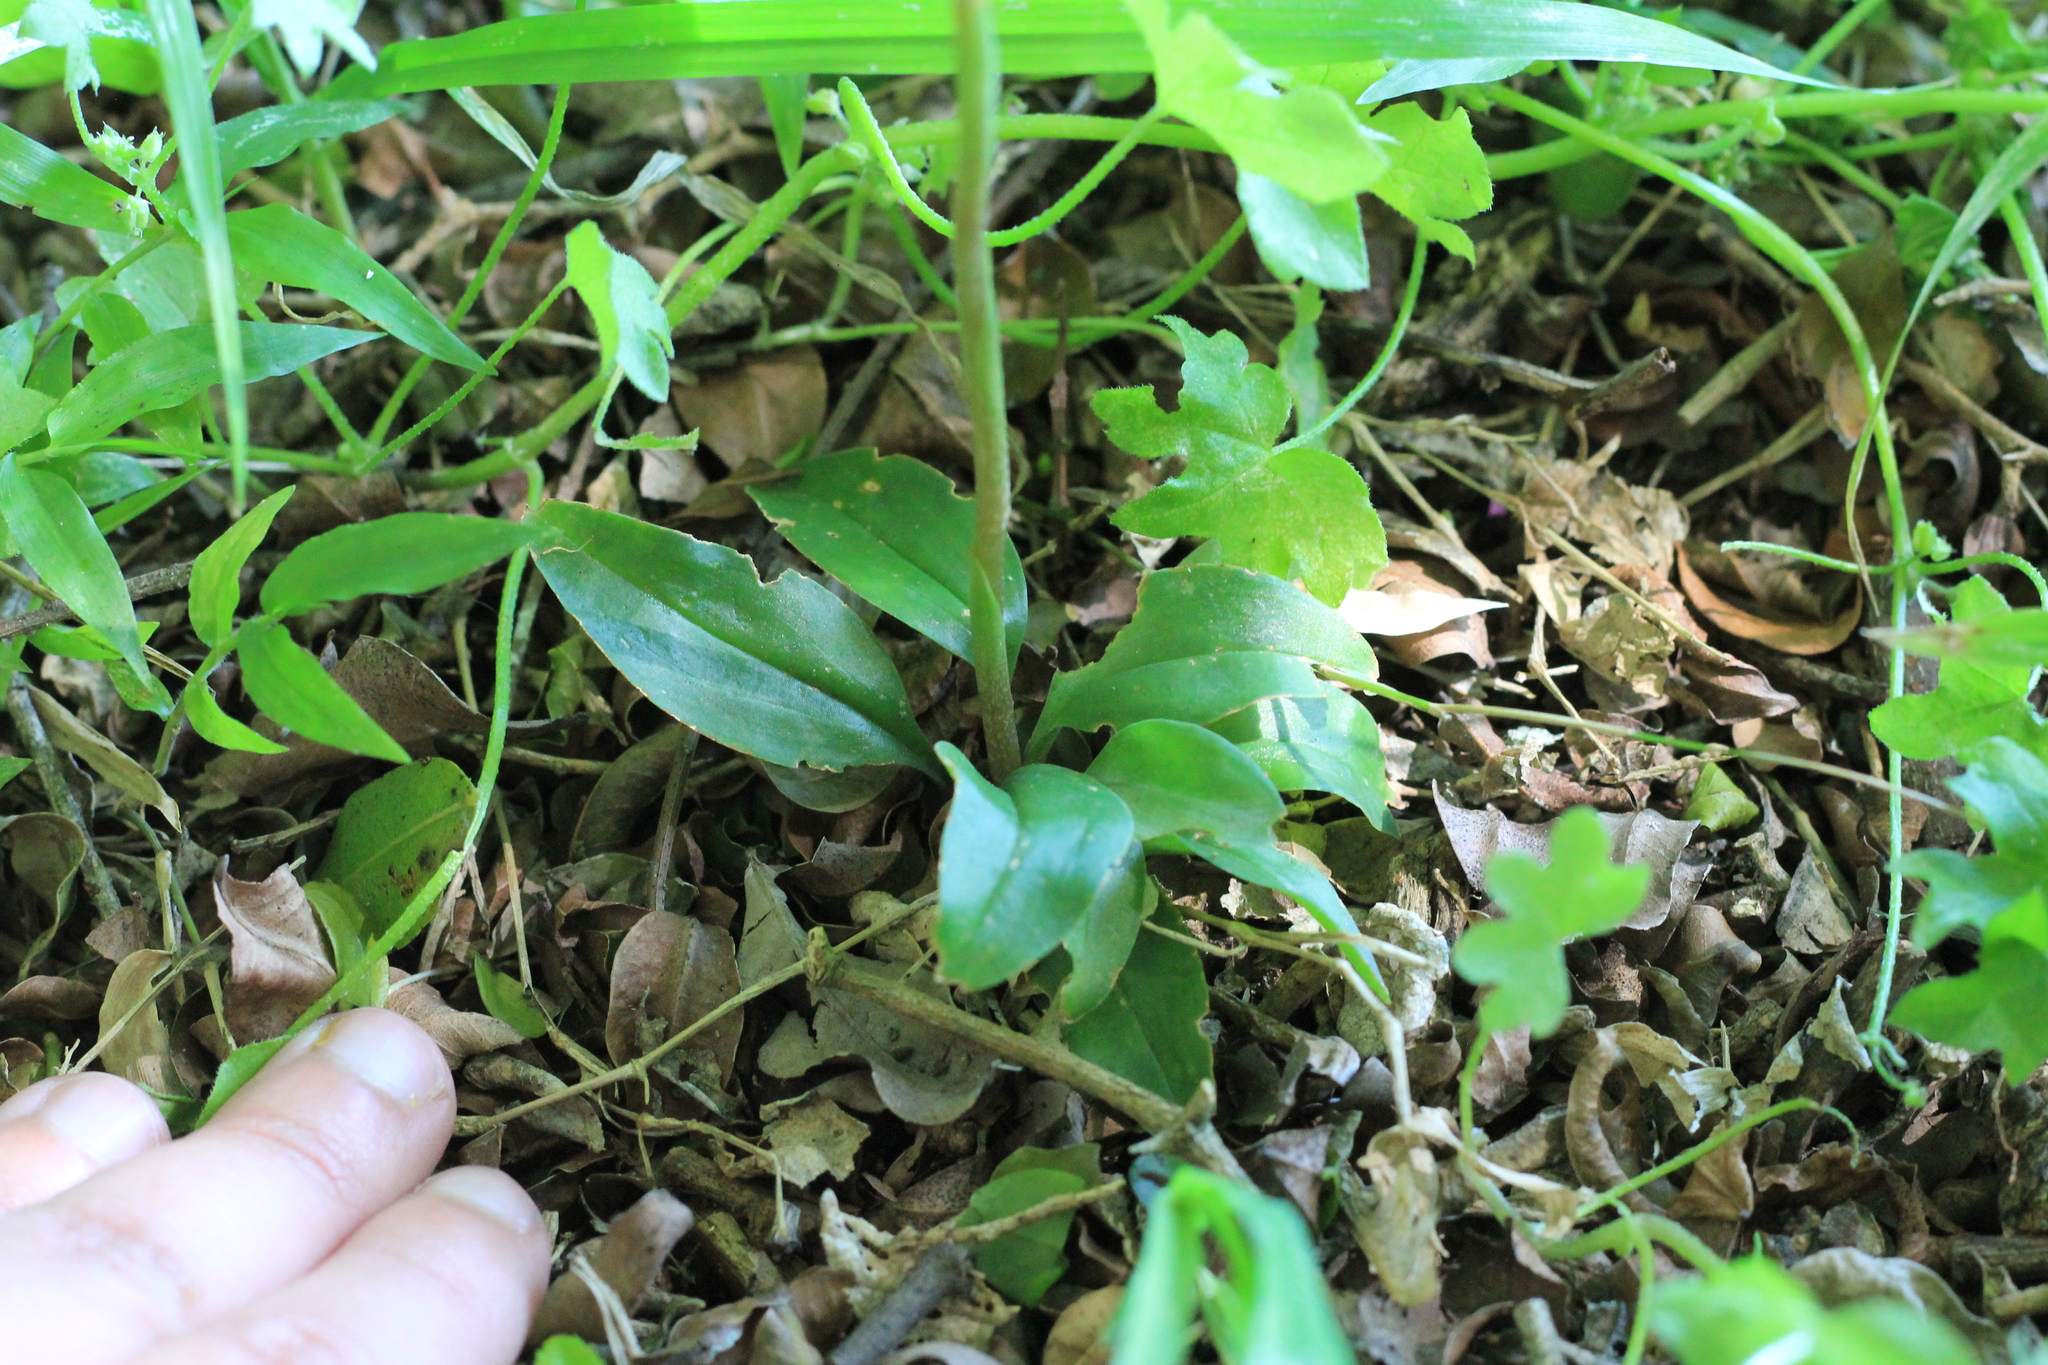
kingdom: Plantae
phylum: Tracheophyta
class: Liliopsida
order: Asparagales
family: Orchidaceae
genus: Cyclopogon
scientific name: Cyclopogon elatus
